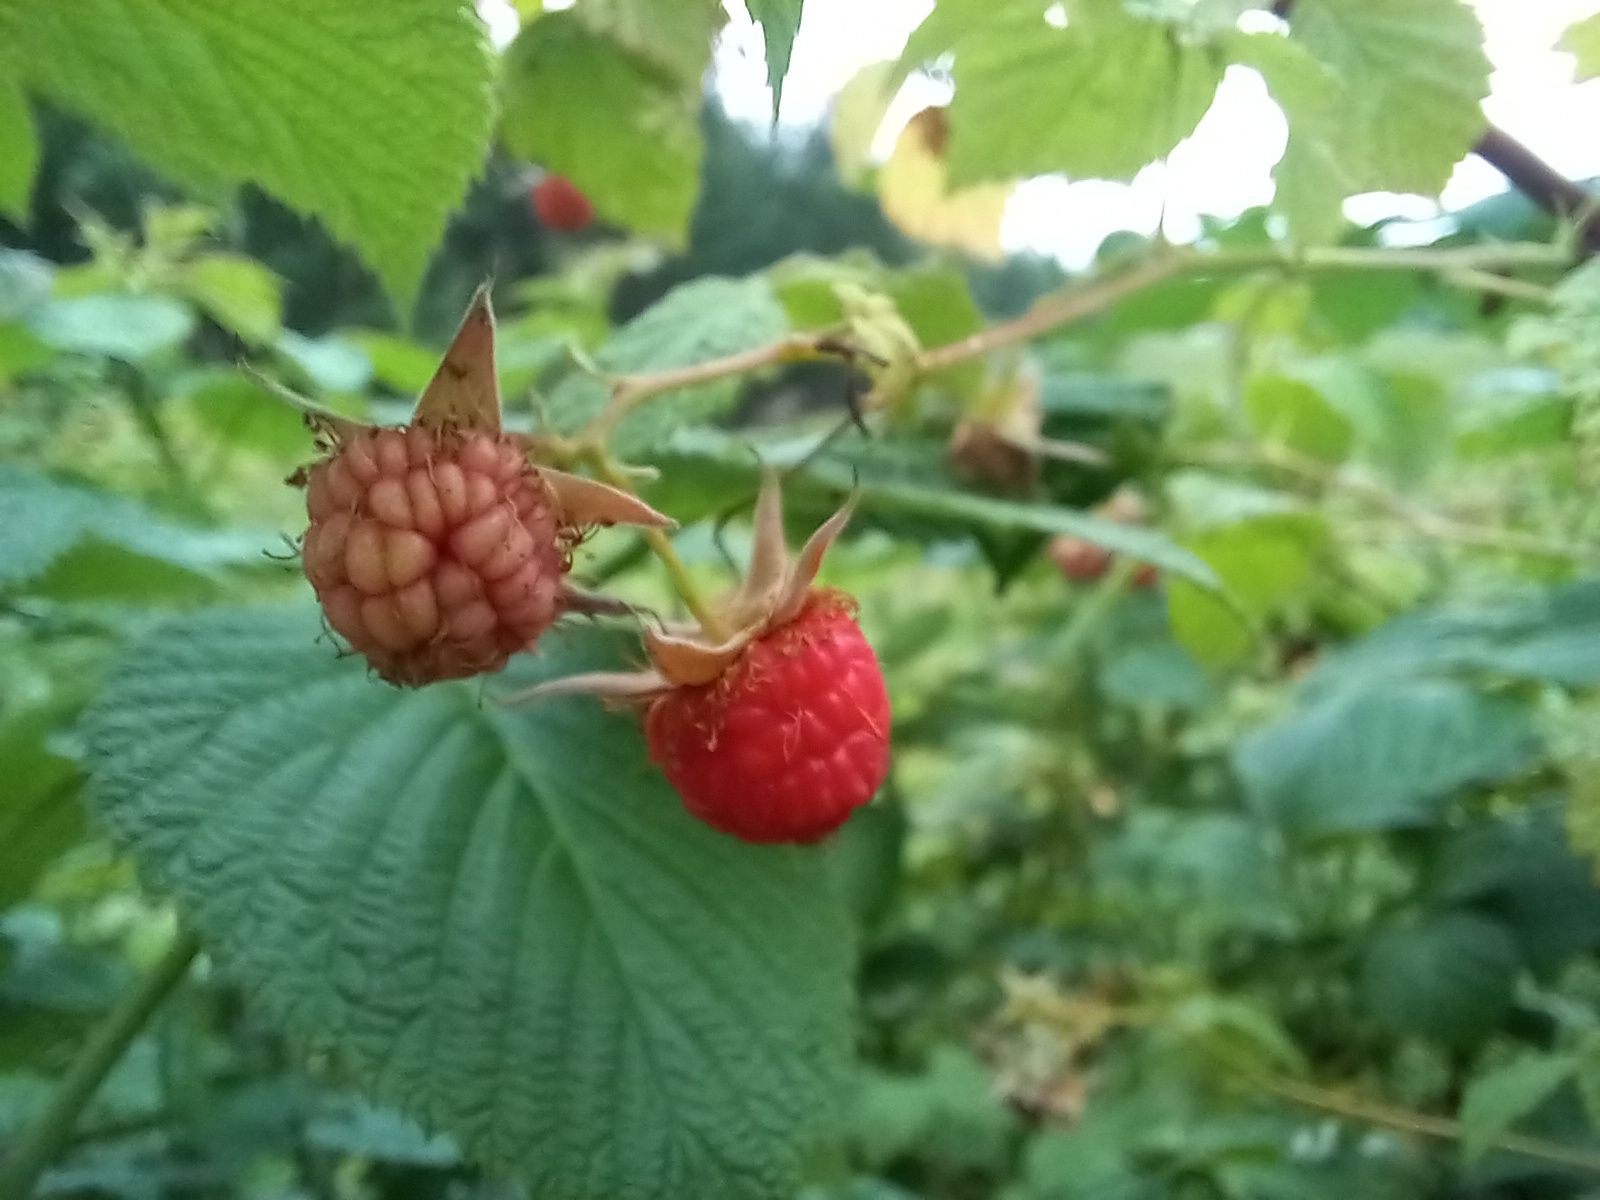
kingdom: Plantae
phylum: Tracheophyta
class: Magnoliopsida
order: Rosales
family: Rosaceae
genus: Rubus
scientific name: Rubus idaeus
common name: Raspberry
